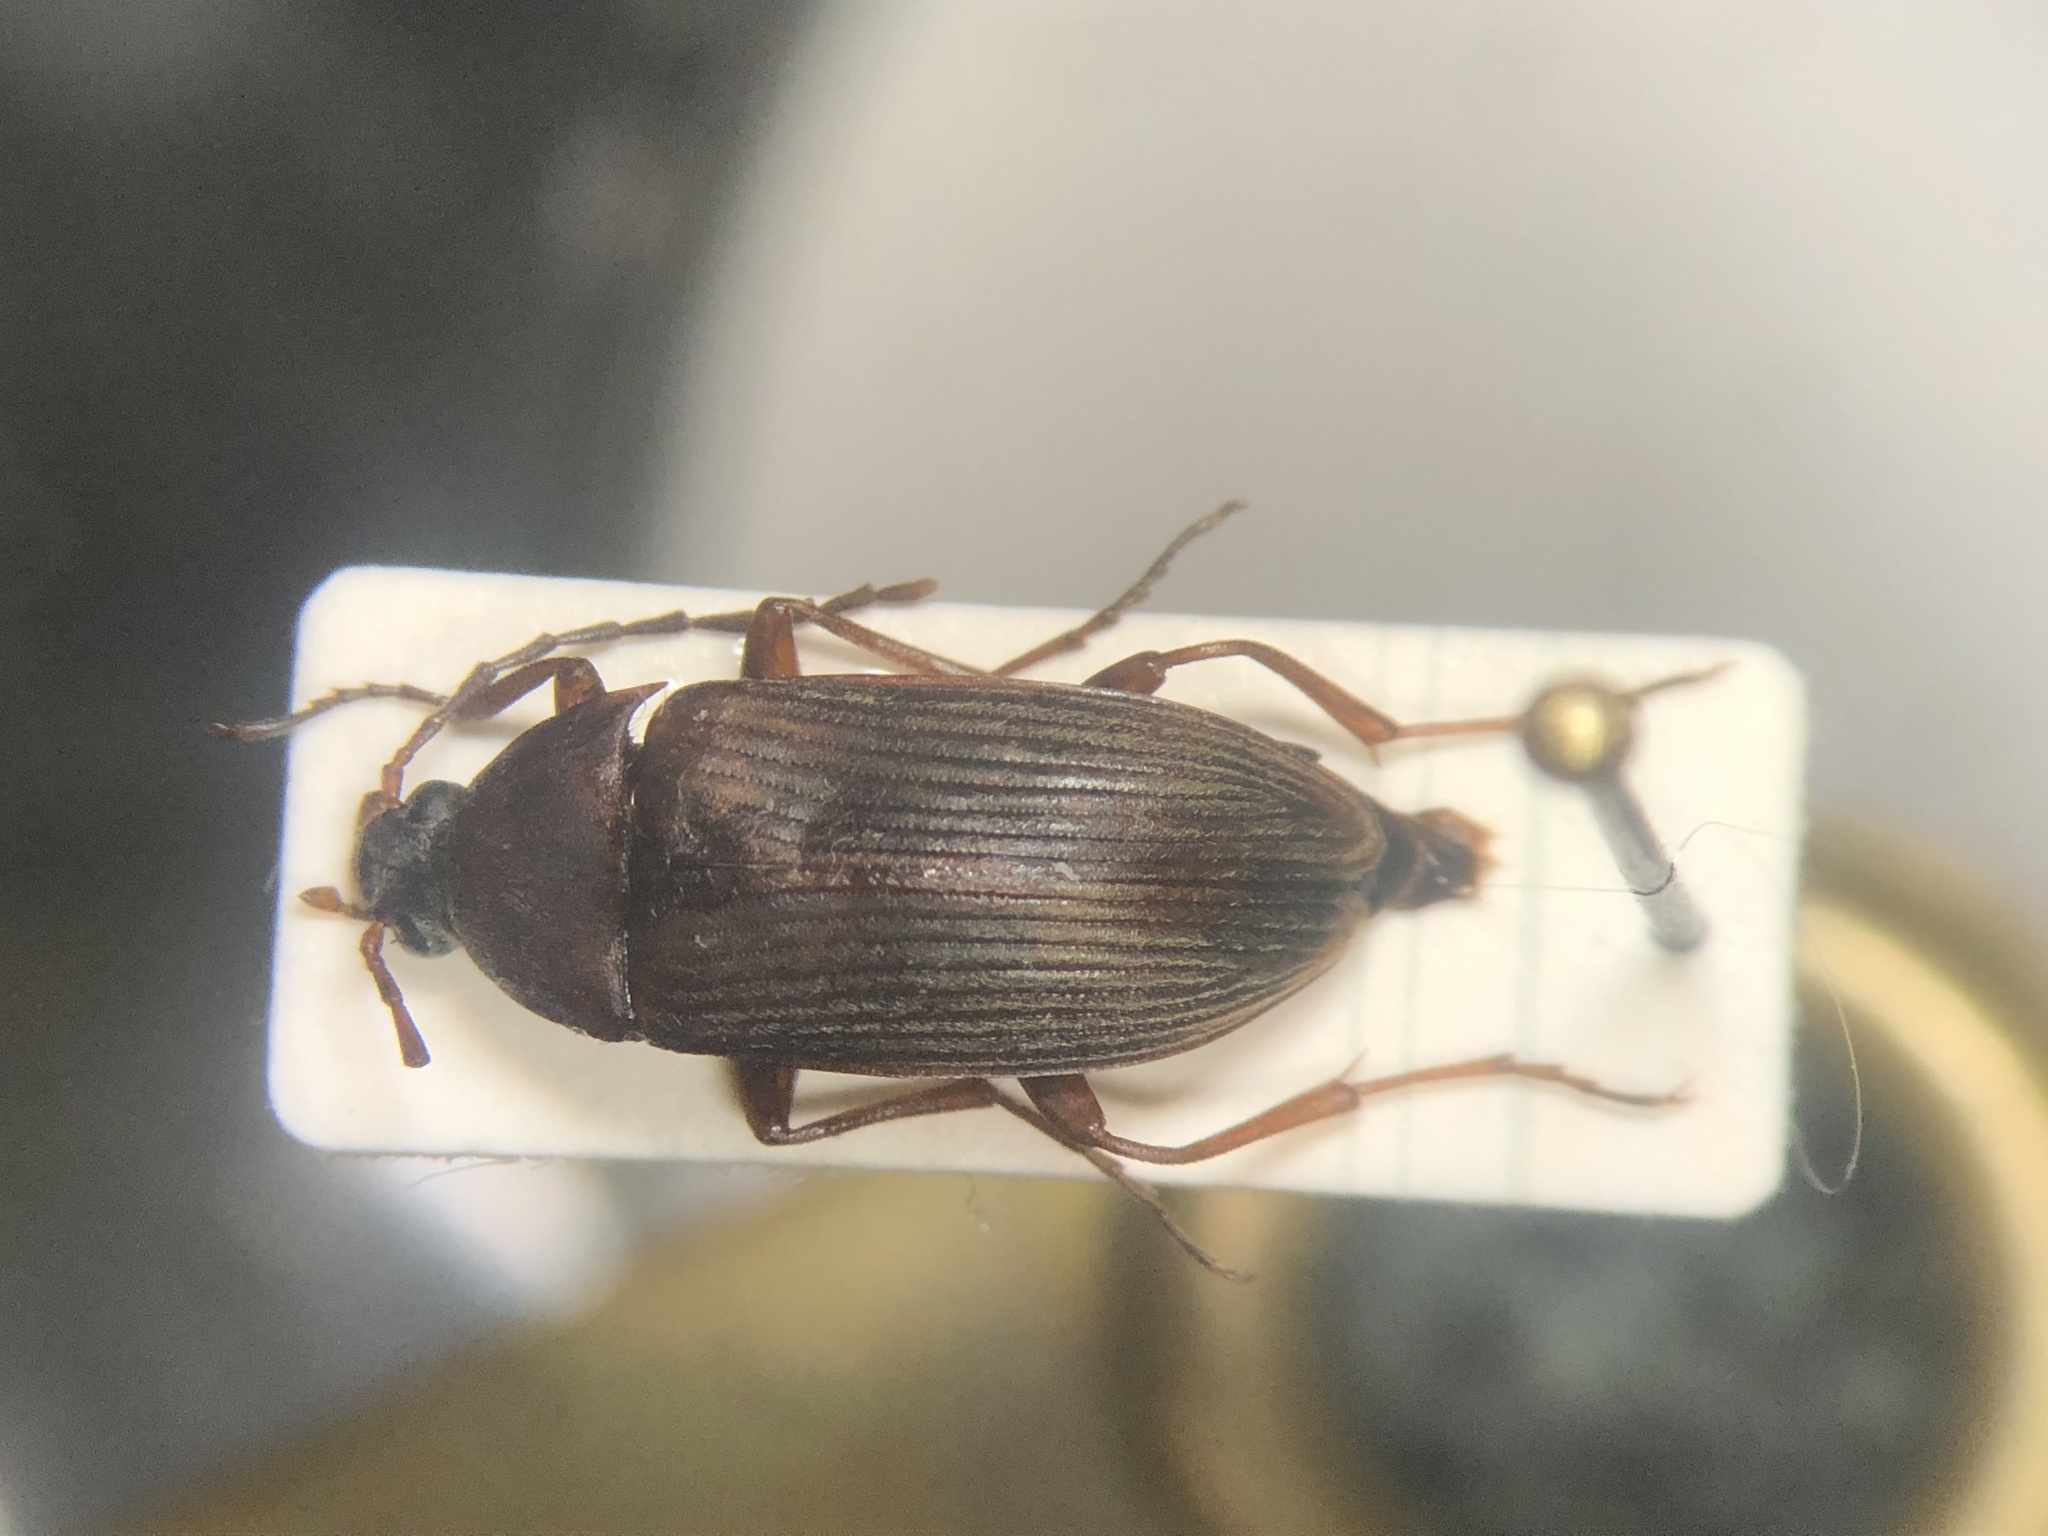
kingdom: Animalia
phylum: Arthropoda
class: Insecta
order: Coleoptera
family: Tenebrionidae
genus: Androchirus
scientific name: Androchirus erythropus
